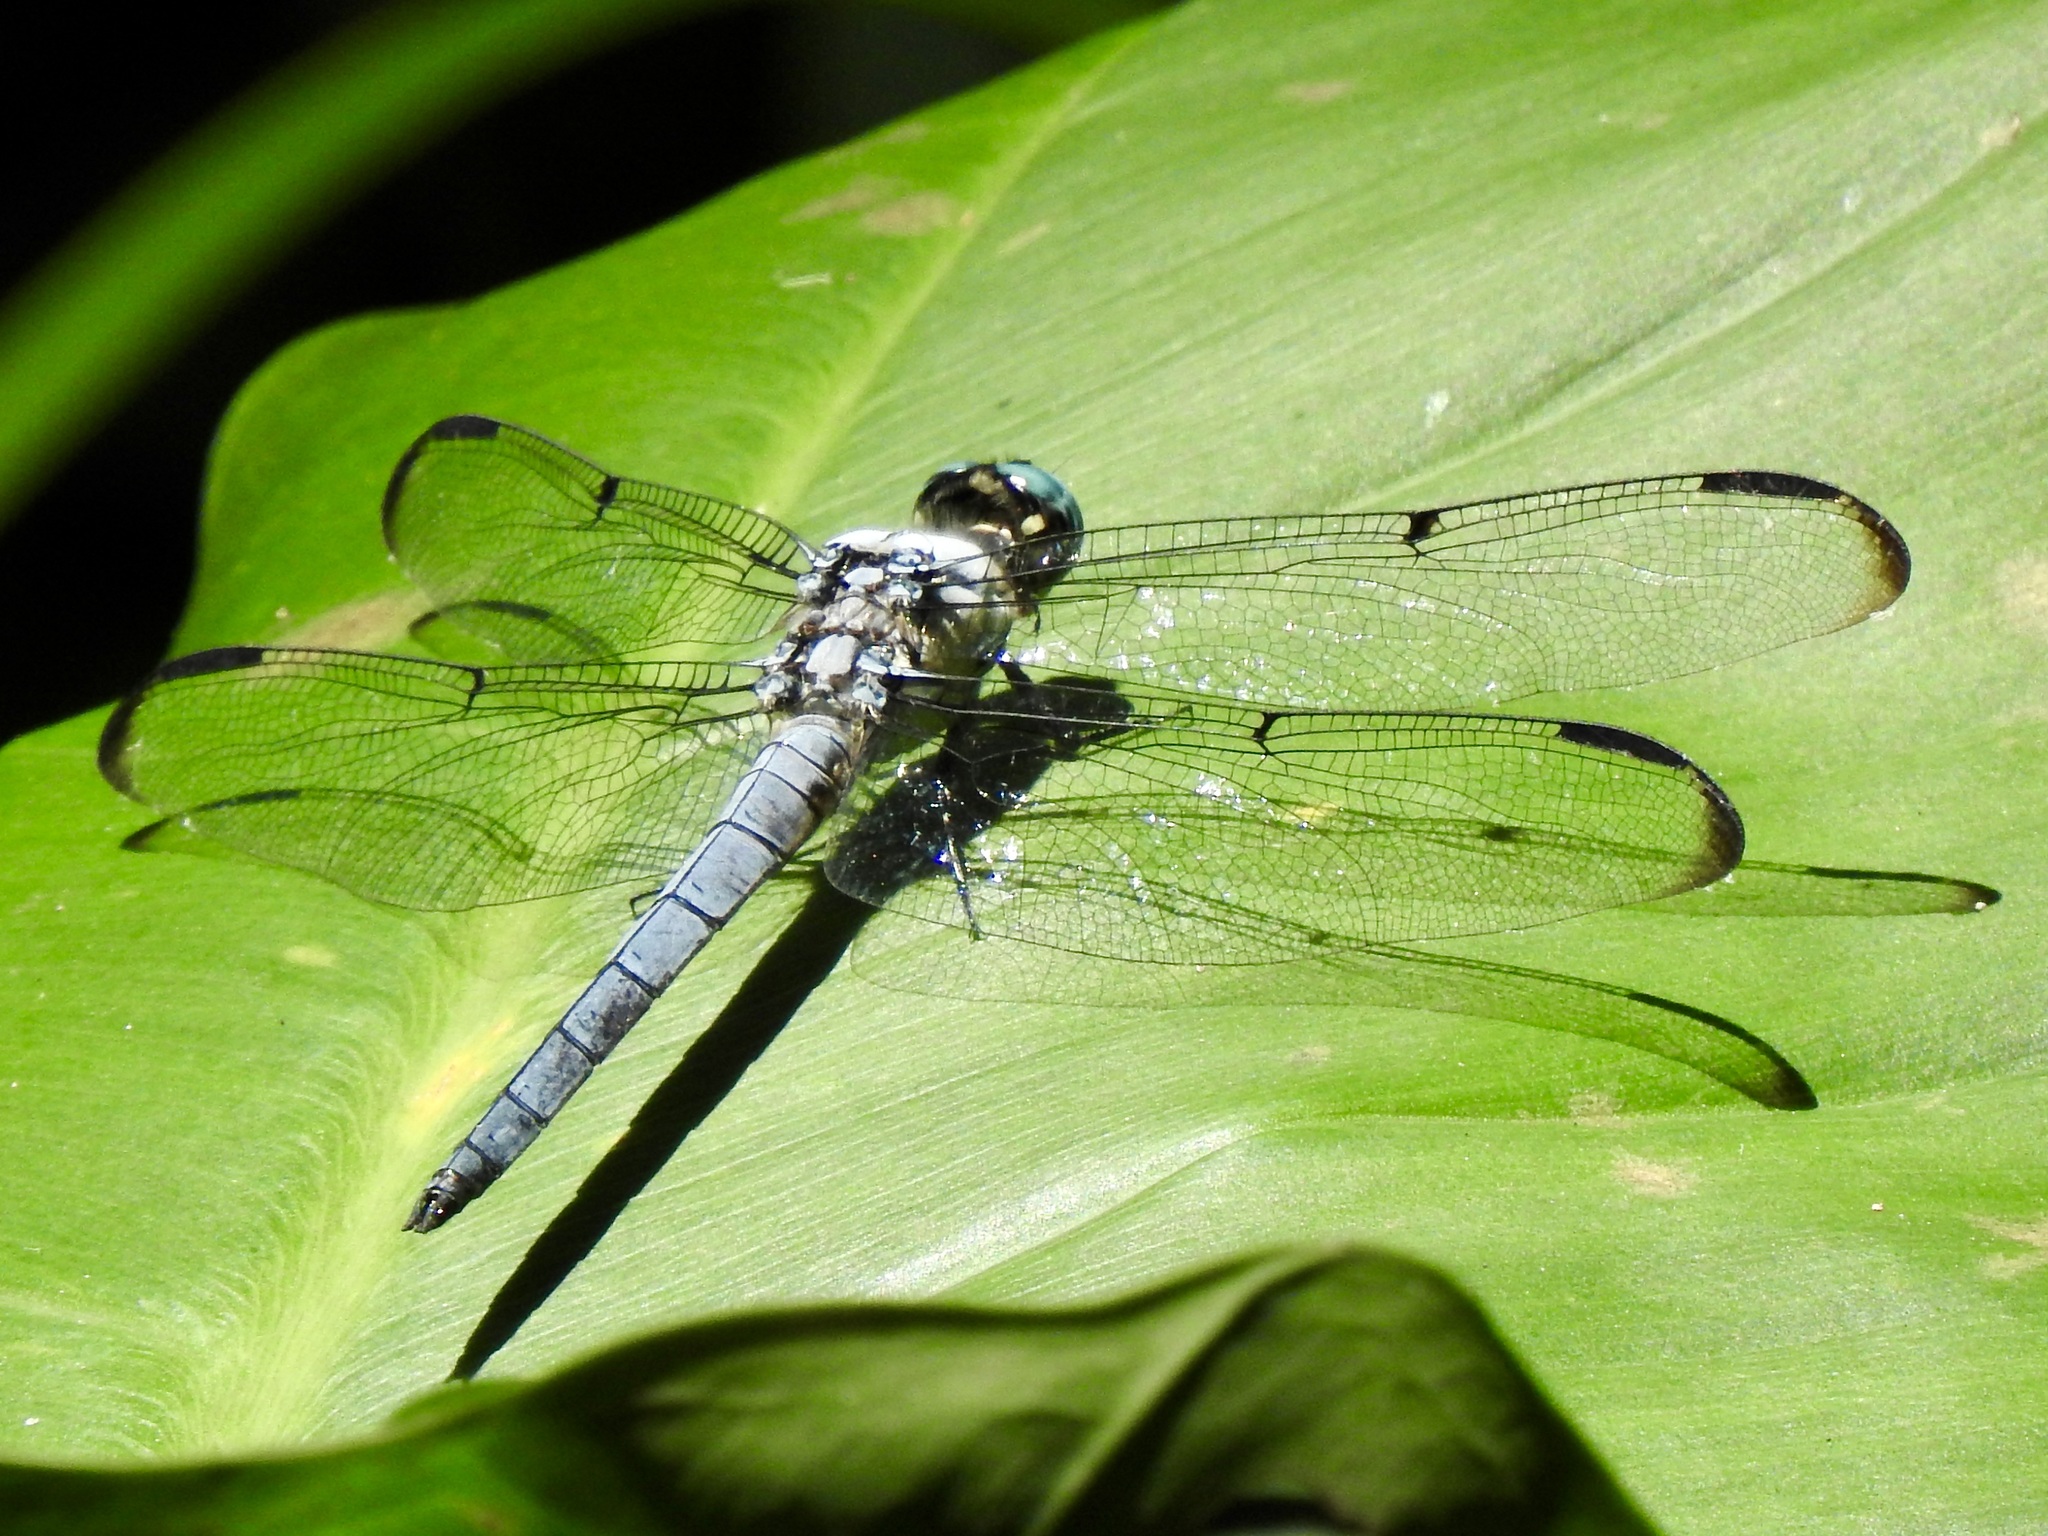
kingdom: Animalia
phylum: Arthropoda
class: Insecta
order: Odonata
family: Libellulidae
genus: Libellula
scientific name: Libellula vibrans
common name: Great blue skimmer
